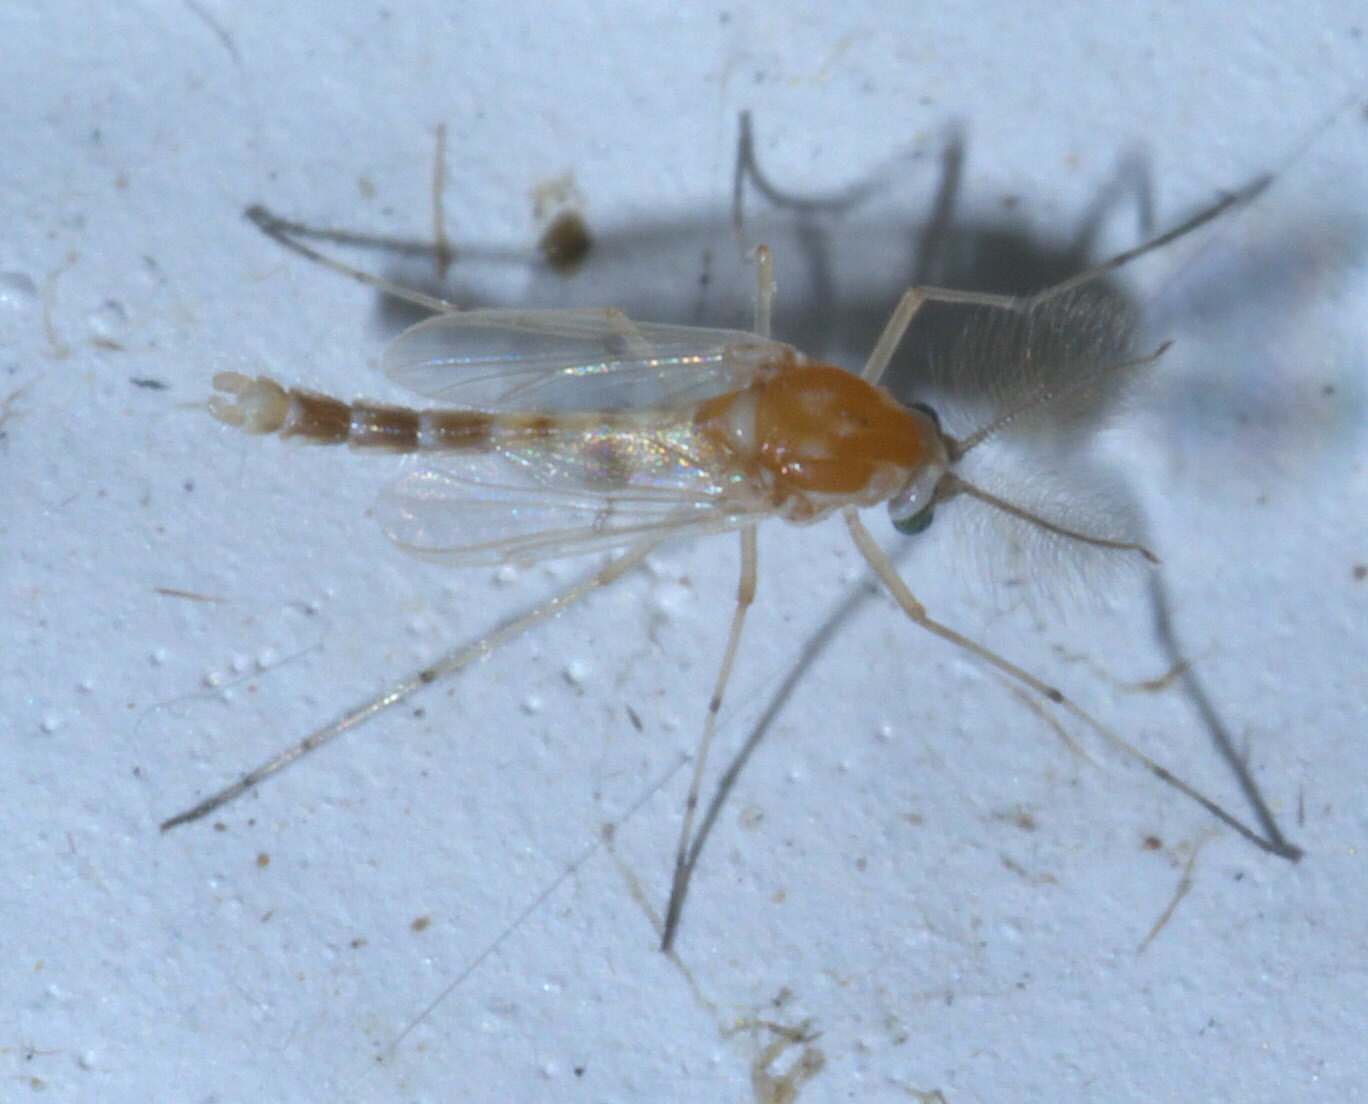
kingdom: Animalia
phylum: Arthropoda
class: Insecta
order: Diptera
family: Chironomidae
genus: Procladius
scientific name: Procladius bellus
